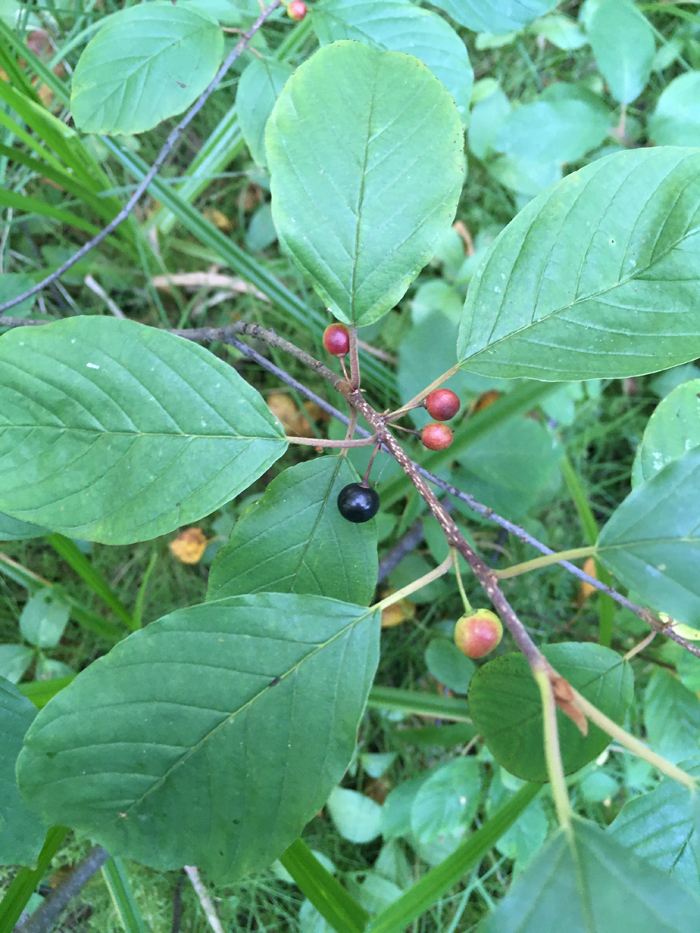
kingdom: Plantae
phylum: Tracheophyta
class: Magnoliopsida
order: Rosales
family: Rhamnaceae
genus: Frangula
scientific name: Frangula alnus
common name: Alder buckthorn
